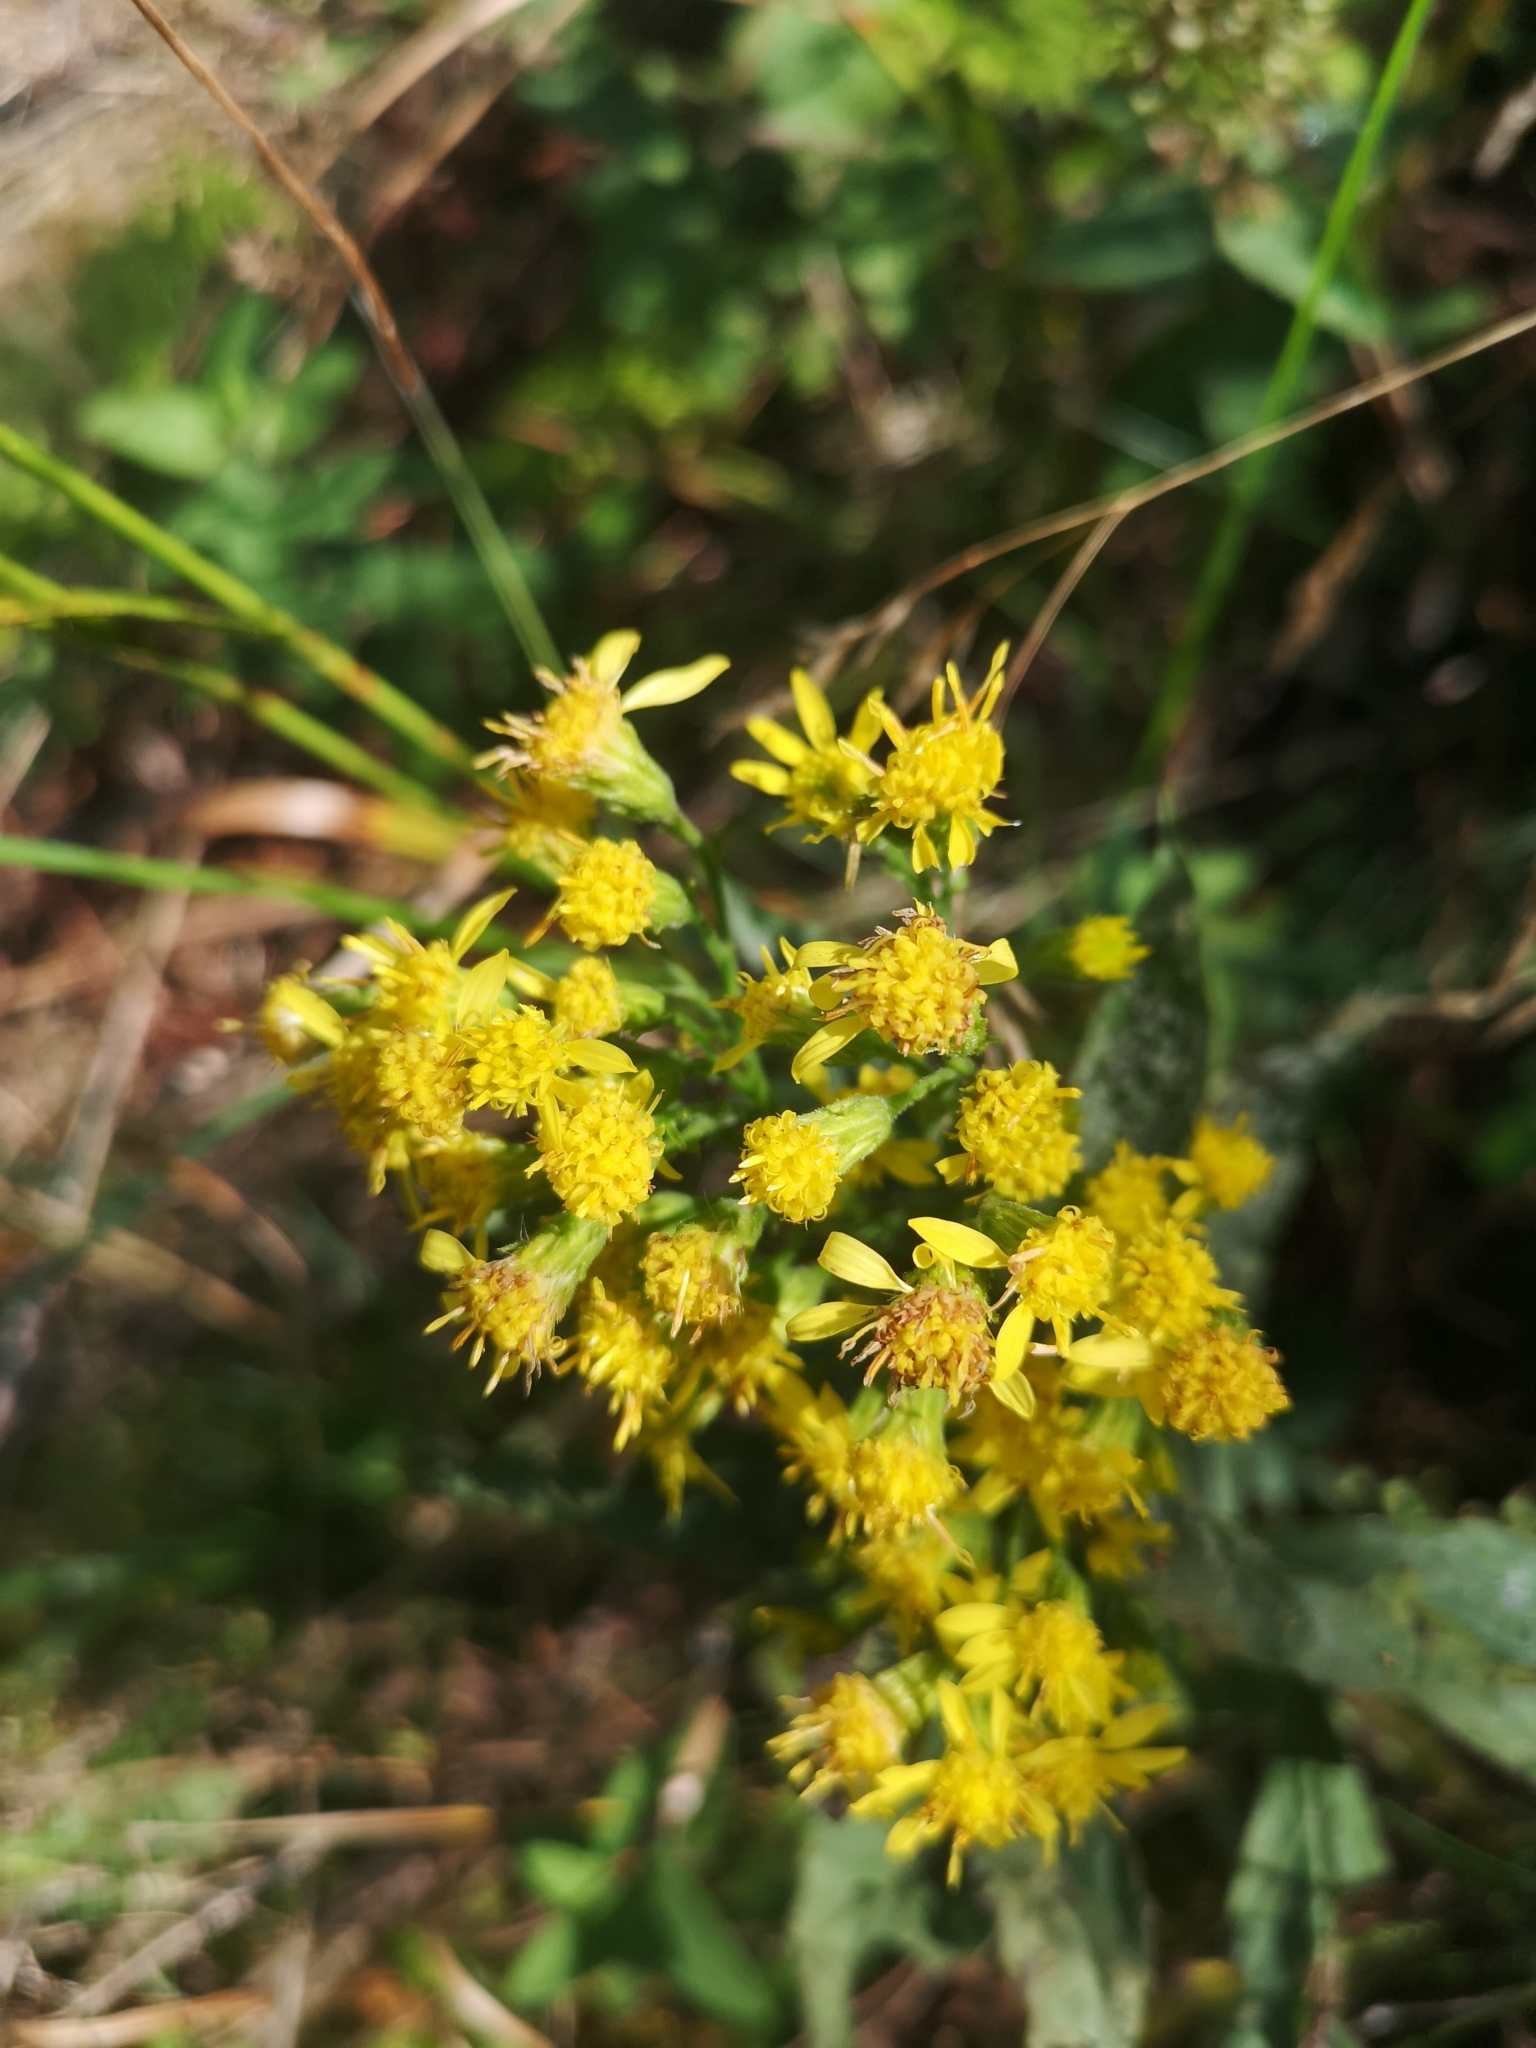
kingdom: Plantae
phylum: Tracheophyta
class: Magnoliopsida
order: Asterales
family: Asteraceae
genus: Solidago
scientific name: Solidago virgaurea
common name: Goldenrod
